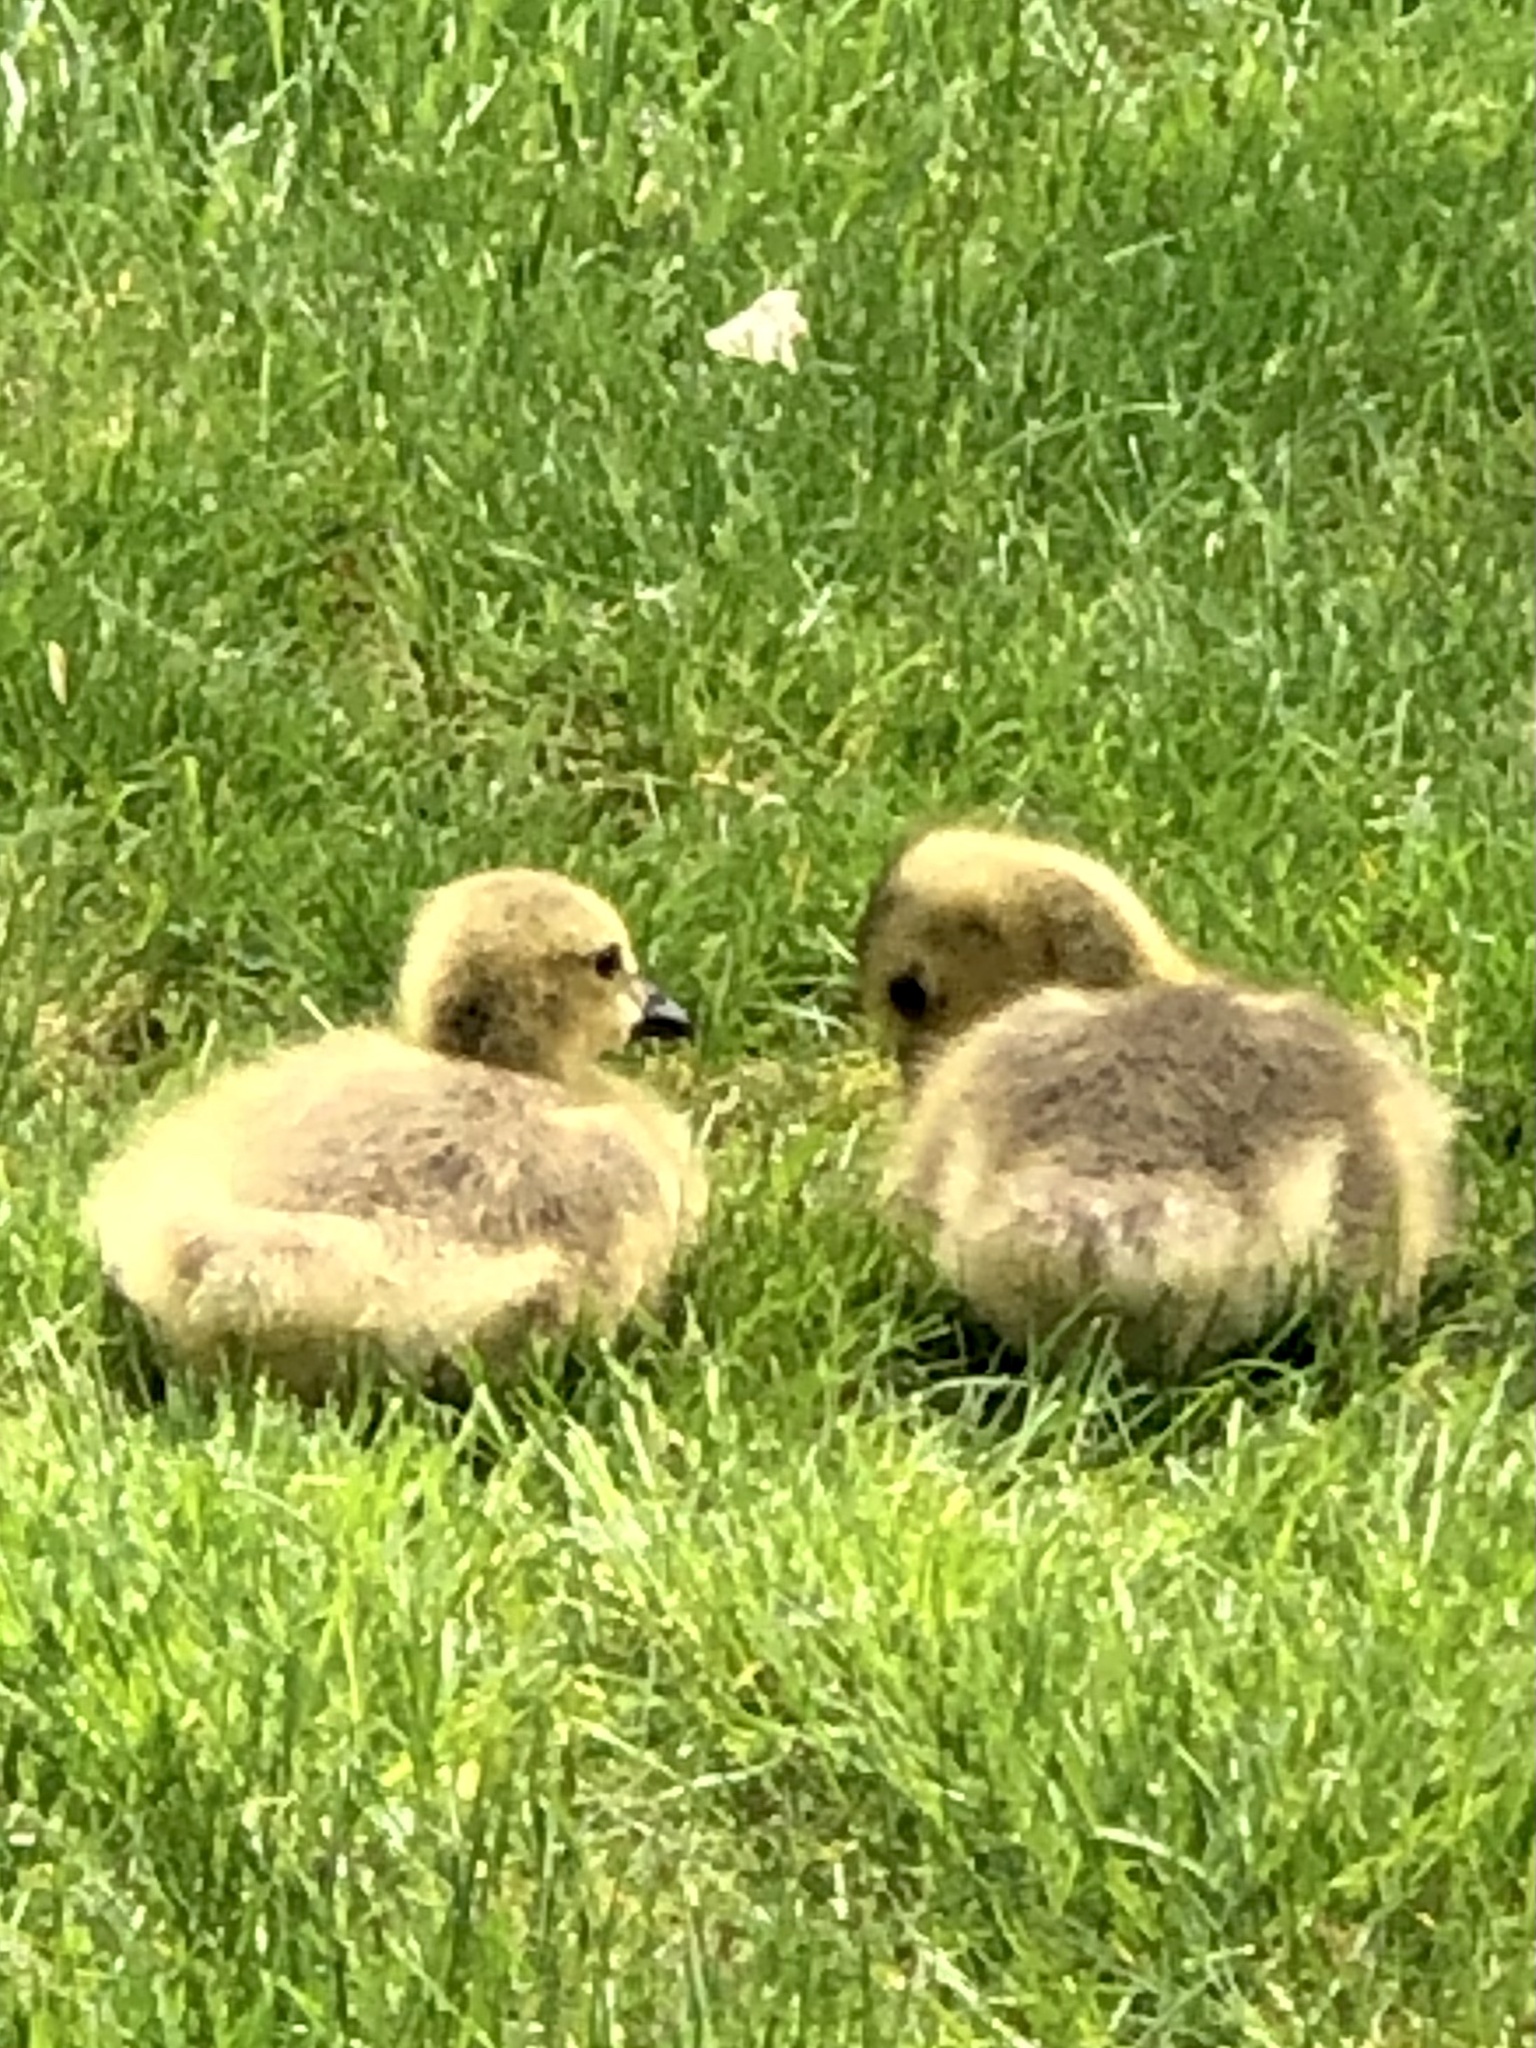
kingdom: Animalia
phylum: Chordata
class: Aves
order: Anseriformes
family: Anatidae
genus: Branta
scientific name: Branta canadensis
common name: Canada goose
